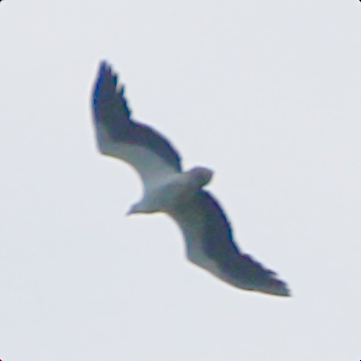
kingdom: Animalia
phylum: Chordata
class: Aves
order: Accipitriformes
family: Accipitridae
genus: Haliaeetus
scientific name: Haliaeetus leucogaster
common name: White-bellied sea eagle
